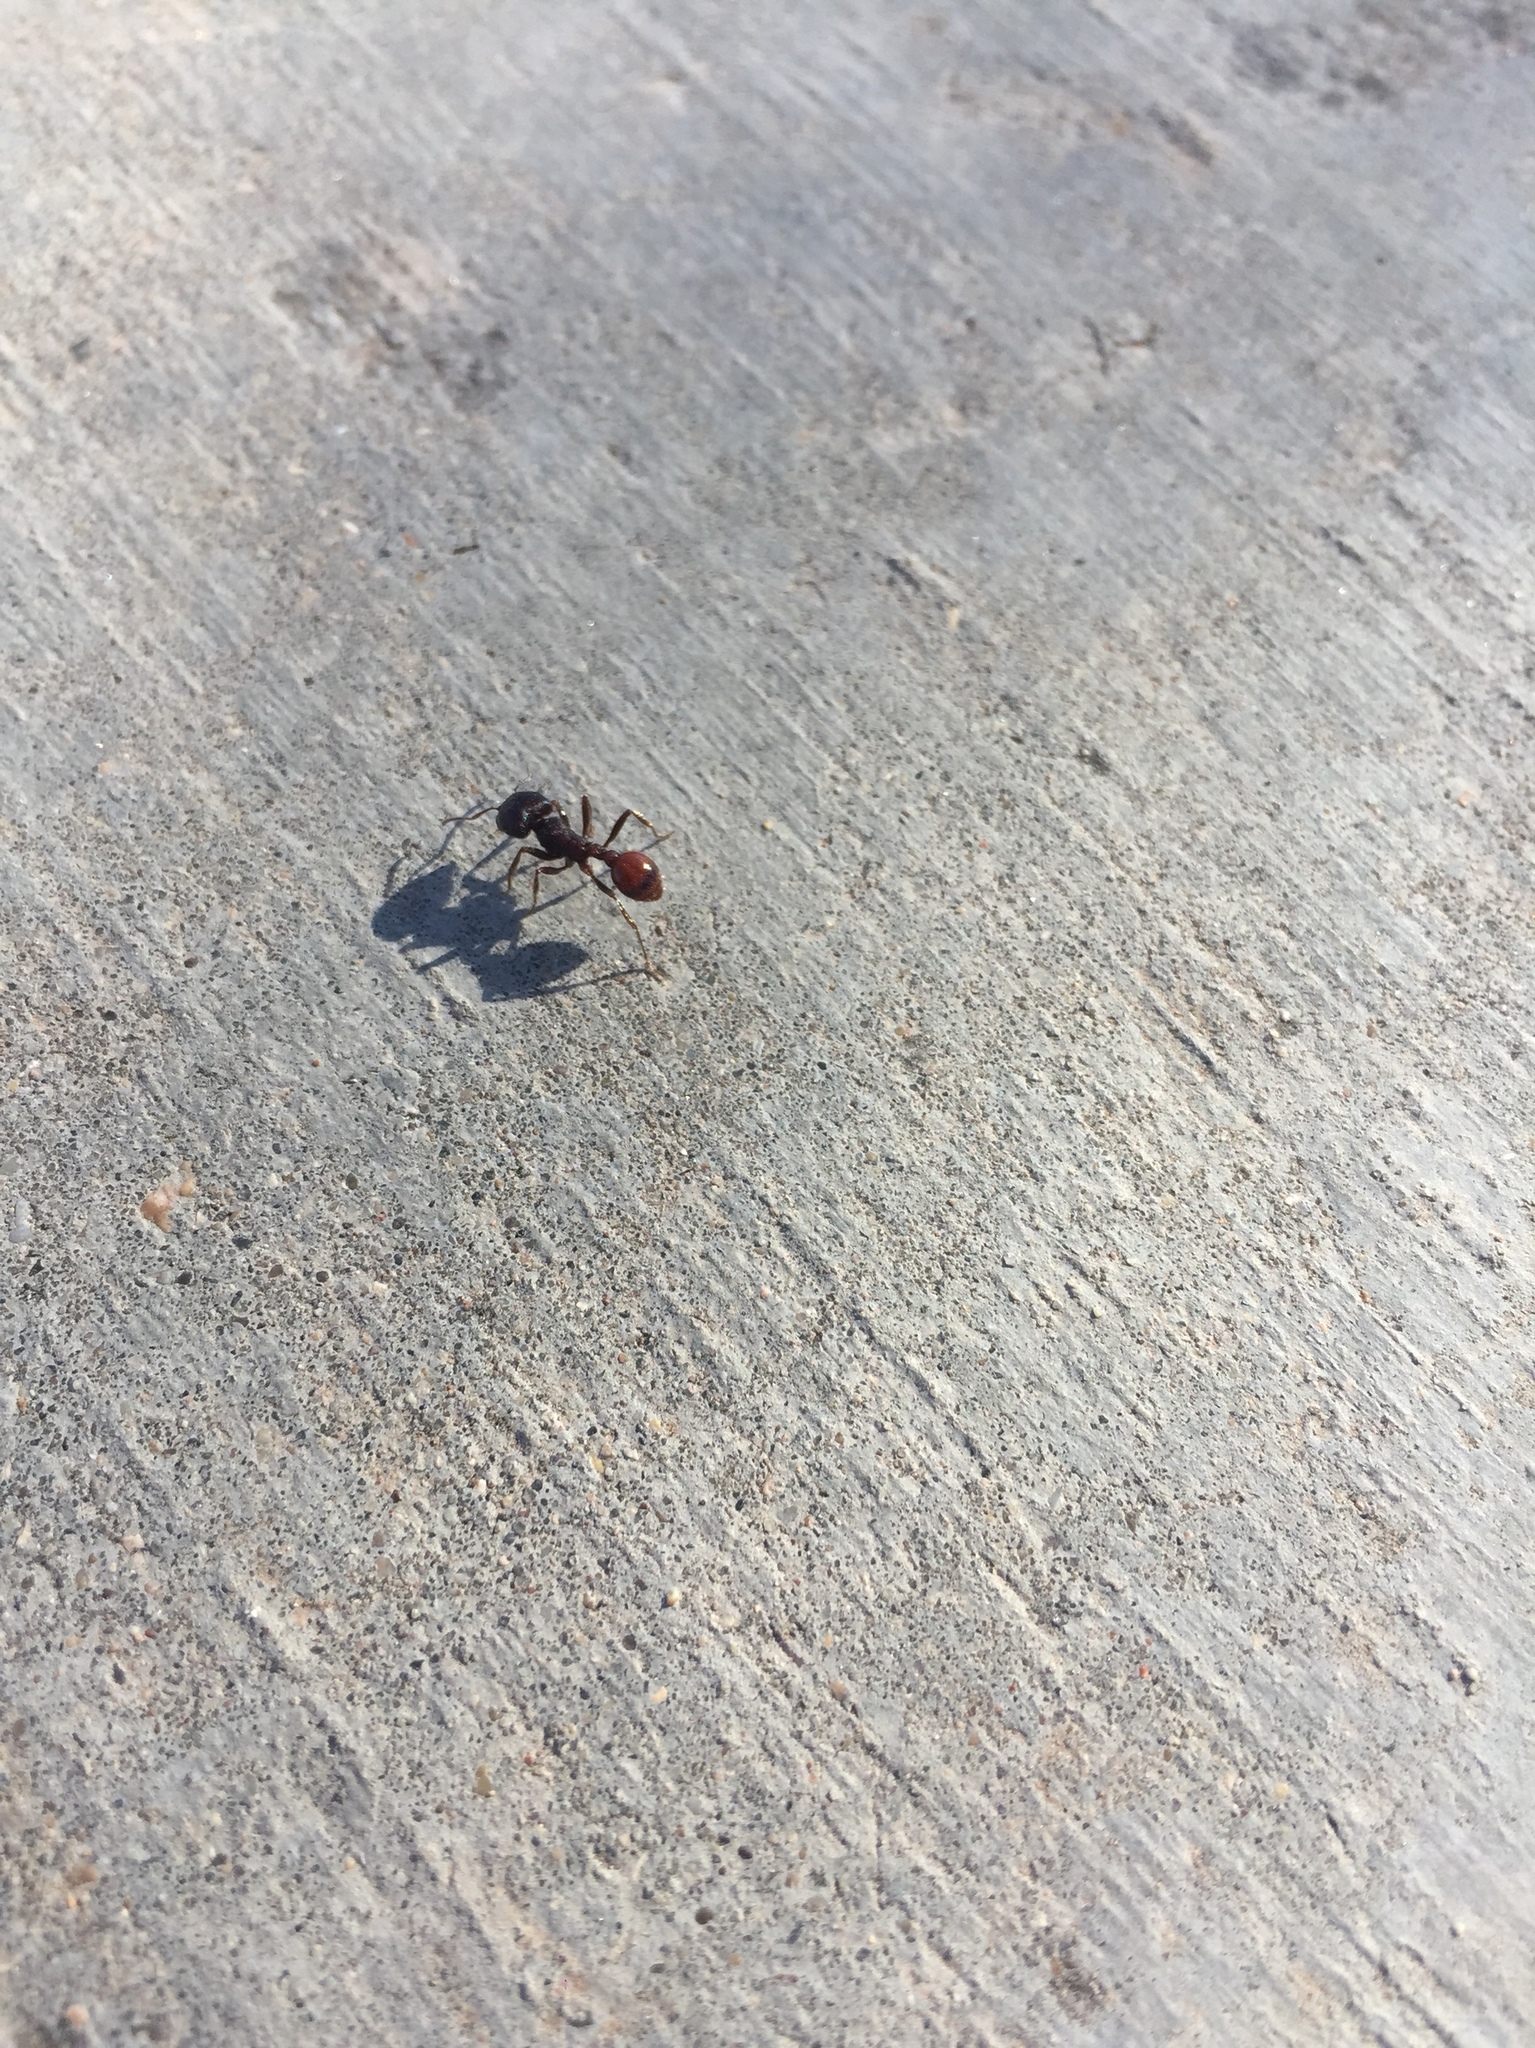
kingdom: Animalia
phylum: Arthropoda
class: Insecta
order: Hymenoptera
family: Formicidae
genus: Pogonomyrmex
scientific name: Pogonomyrmex rugosus
